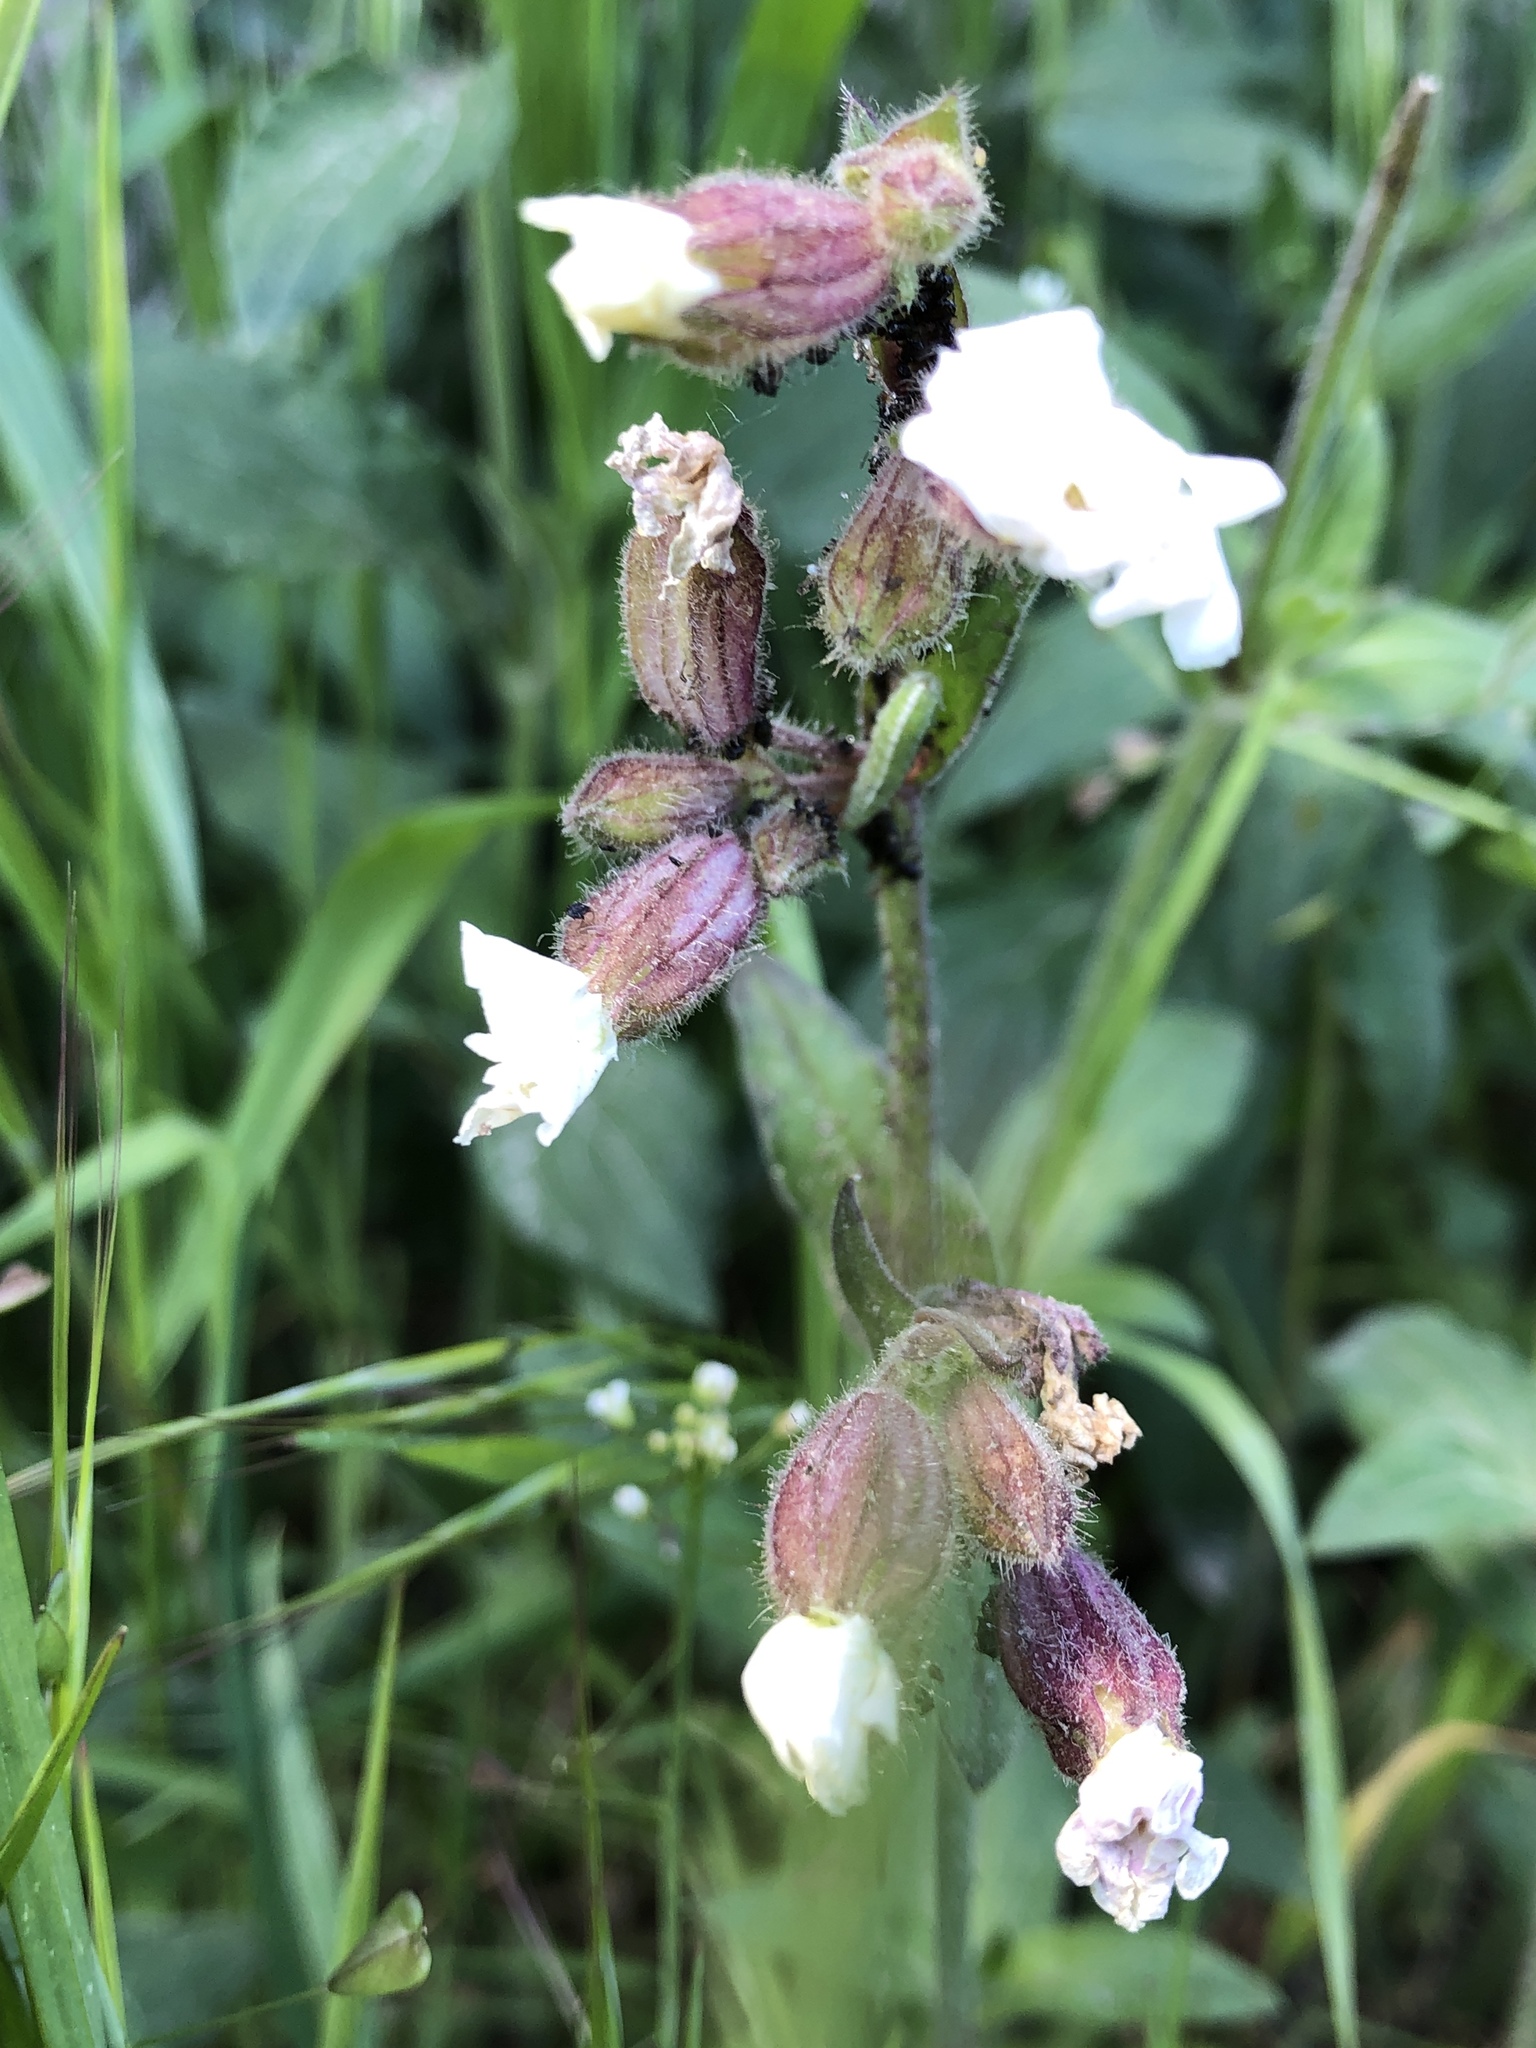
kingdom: Plantae
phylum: Tracheophyta
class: Magnoliopsida
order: Caryophyllales
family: Caryophyllaceae
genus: Silene
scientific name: Silene latifolia
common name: White campion
